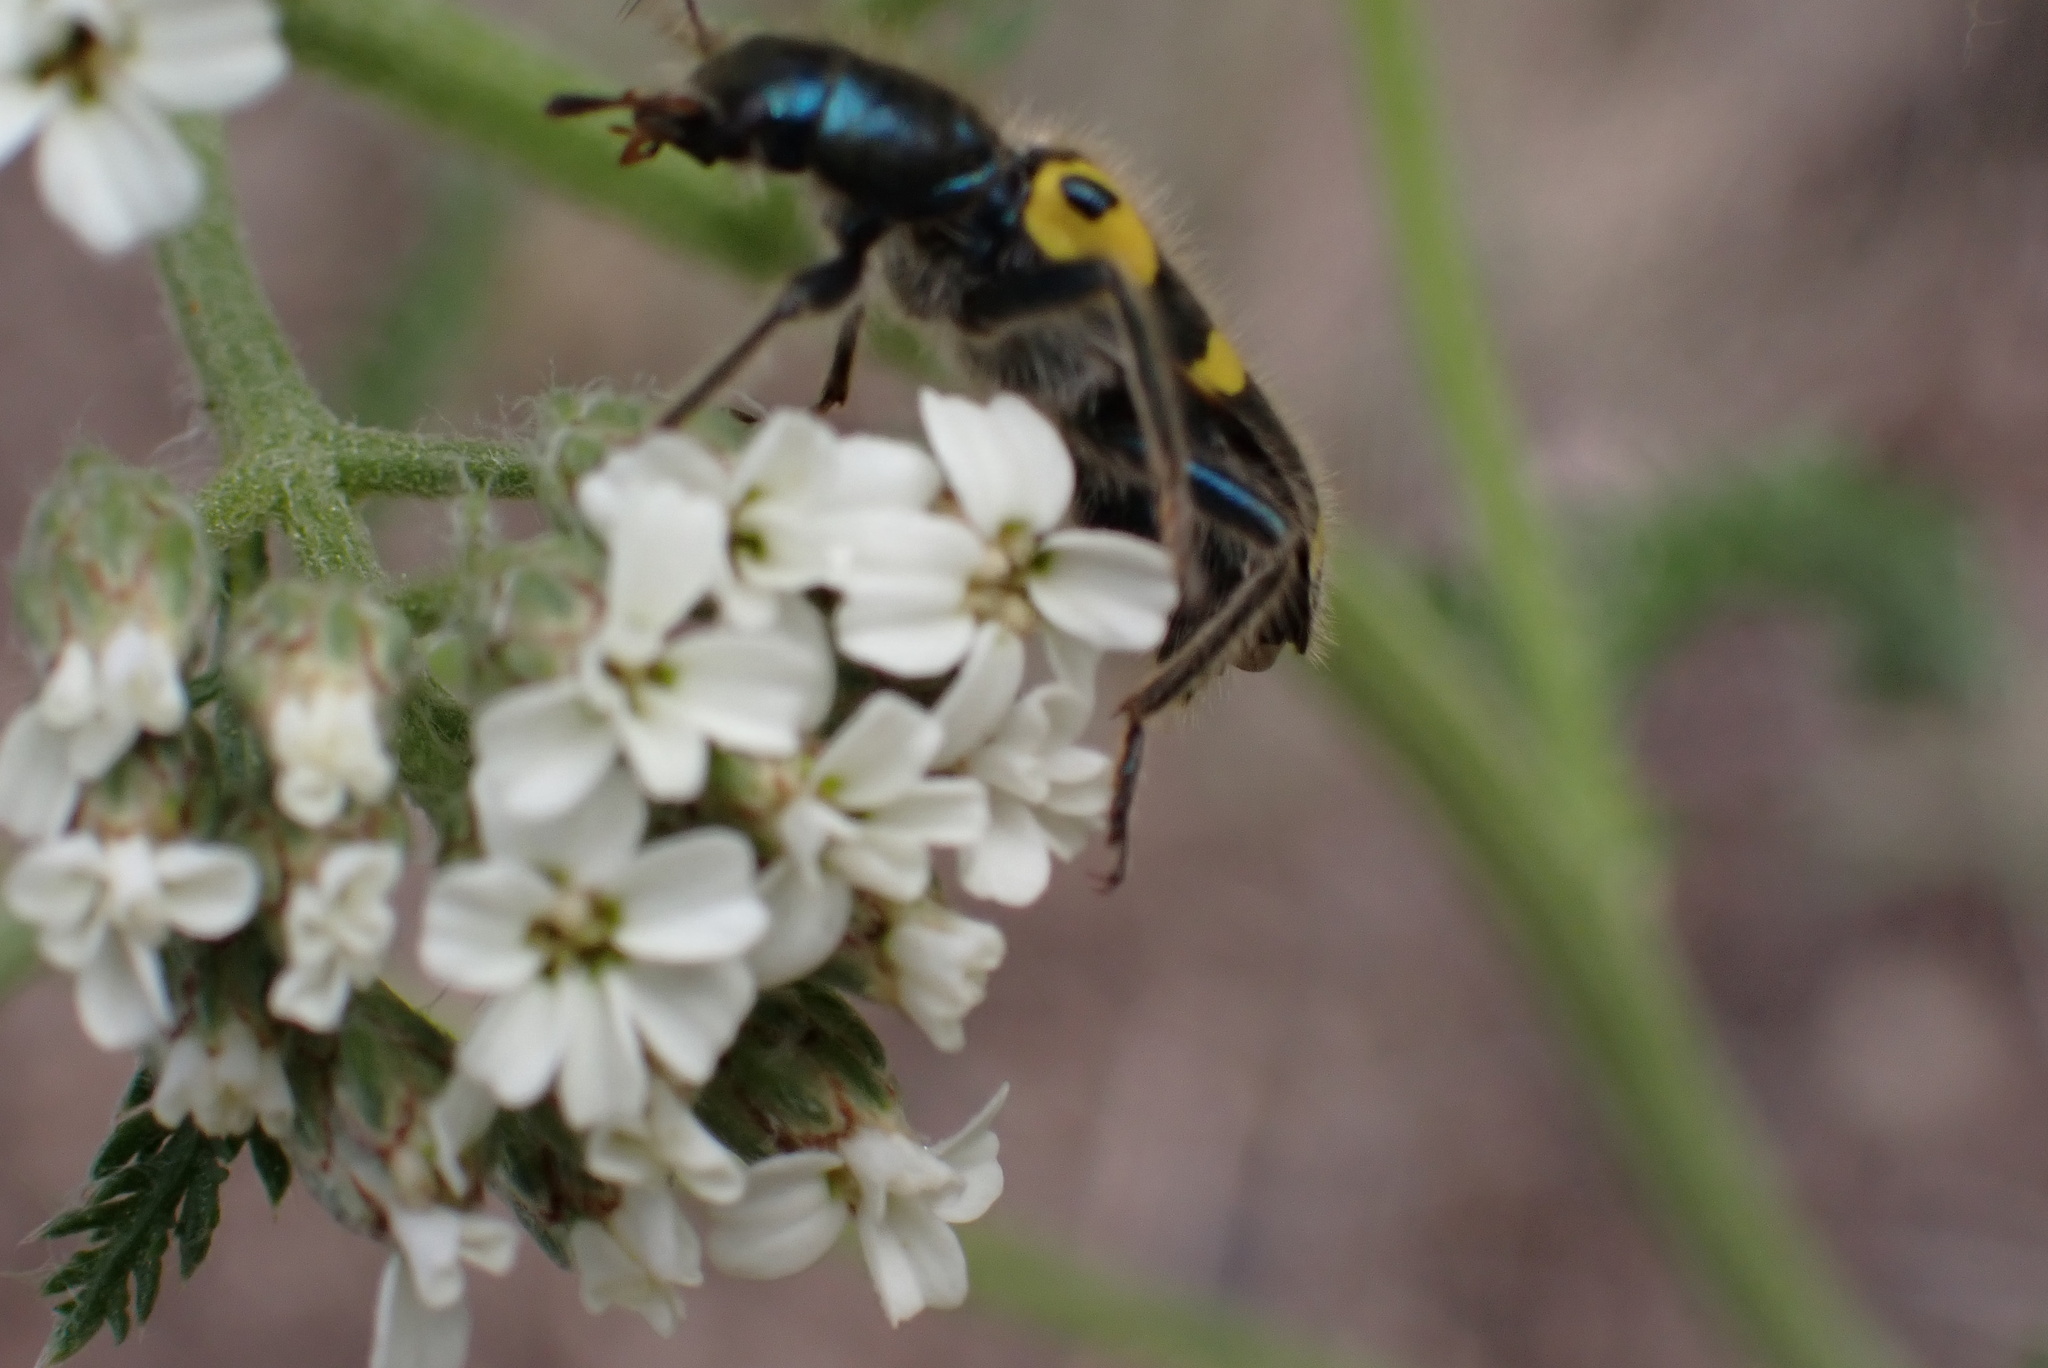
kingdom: Animalia
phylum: Arthropoda
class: Insecta
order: Coleoptera
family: Cleridae
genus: Trichodes
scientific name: Trichodes ornatus
